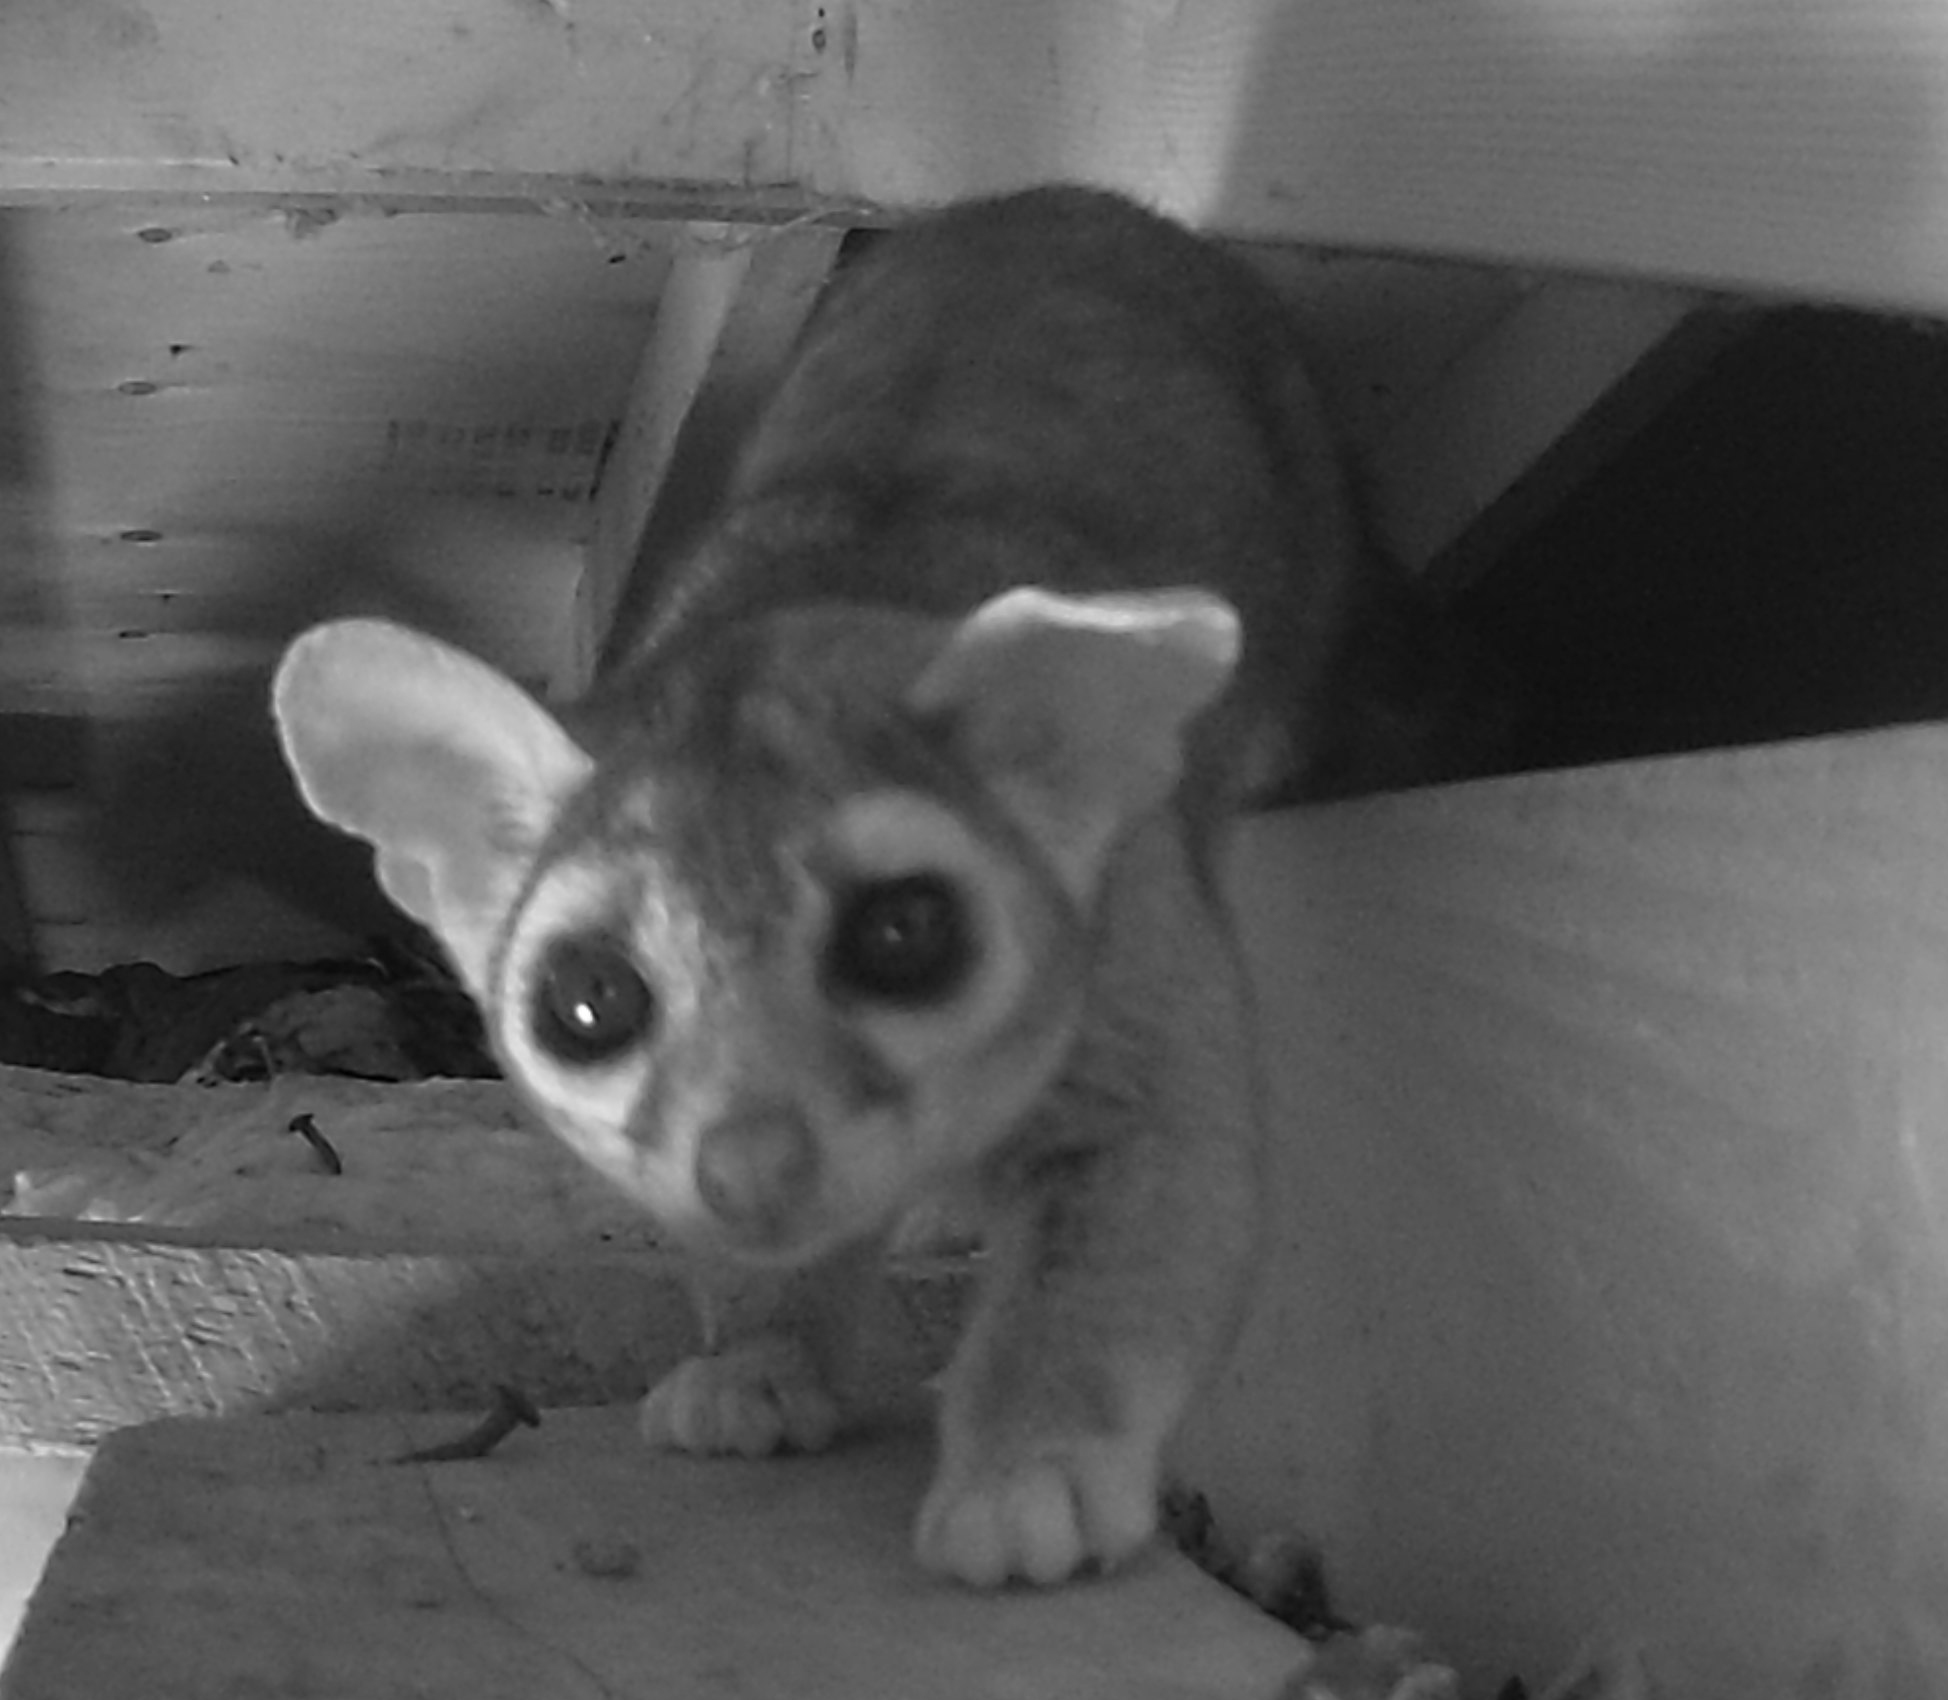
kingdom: Animalia
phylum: Chordata
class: Mammalia
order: Carnivora
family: Procyonidae
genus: Bassariscus
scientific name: Bassariscus astutus
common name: Ringtail
